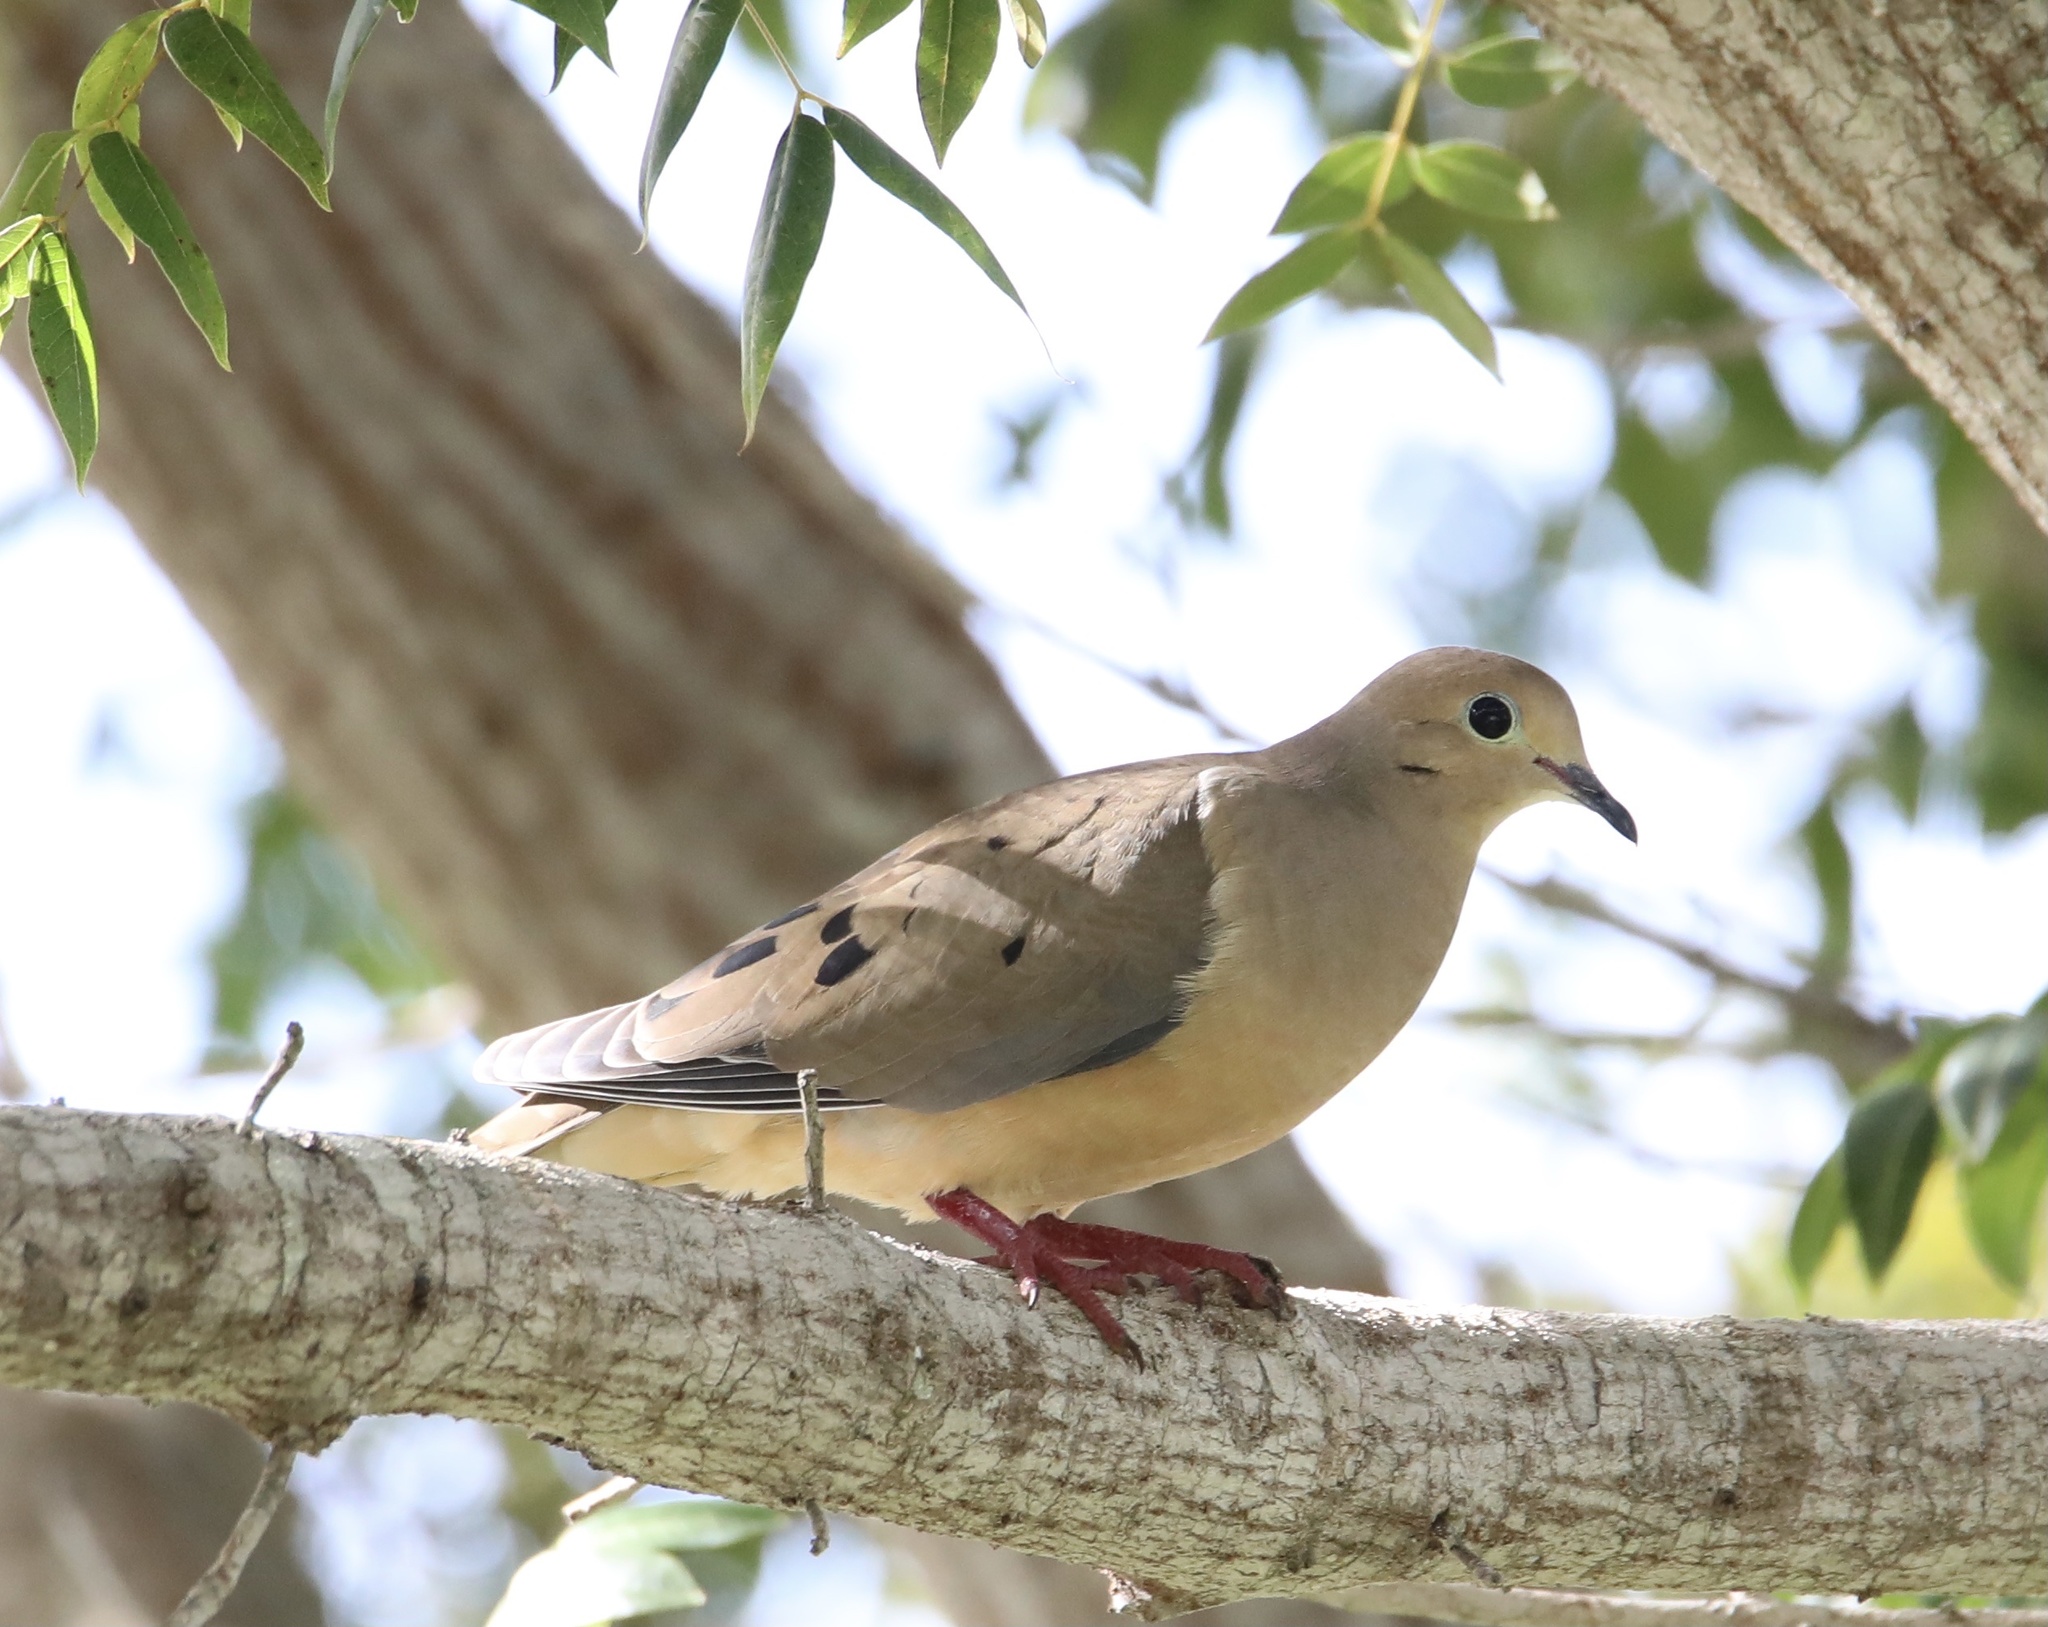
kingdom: Animalia
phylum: Chordata
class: Aves
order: Columbiformes
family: Columbidae
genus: Zenaida
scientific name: Zenaida macroura
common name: Mourning dove
